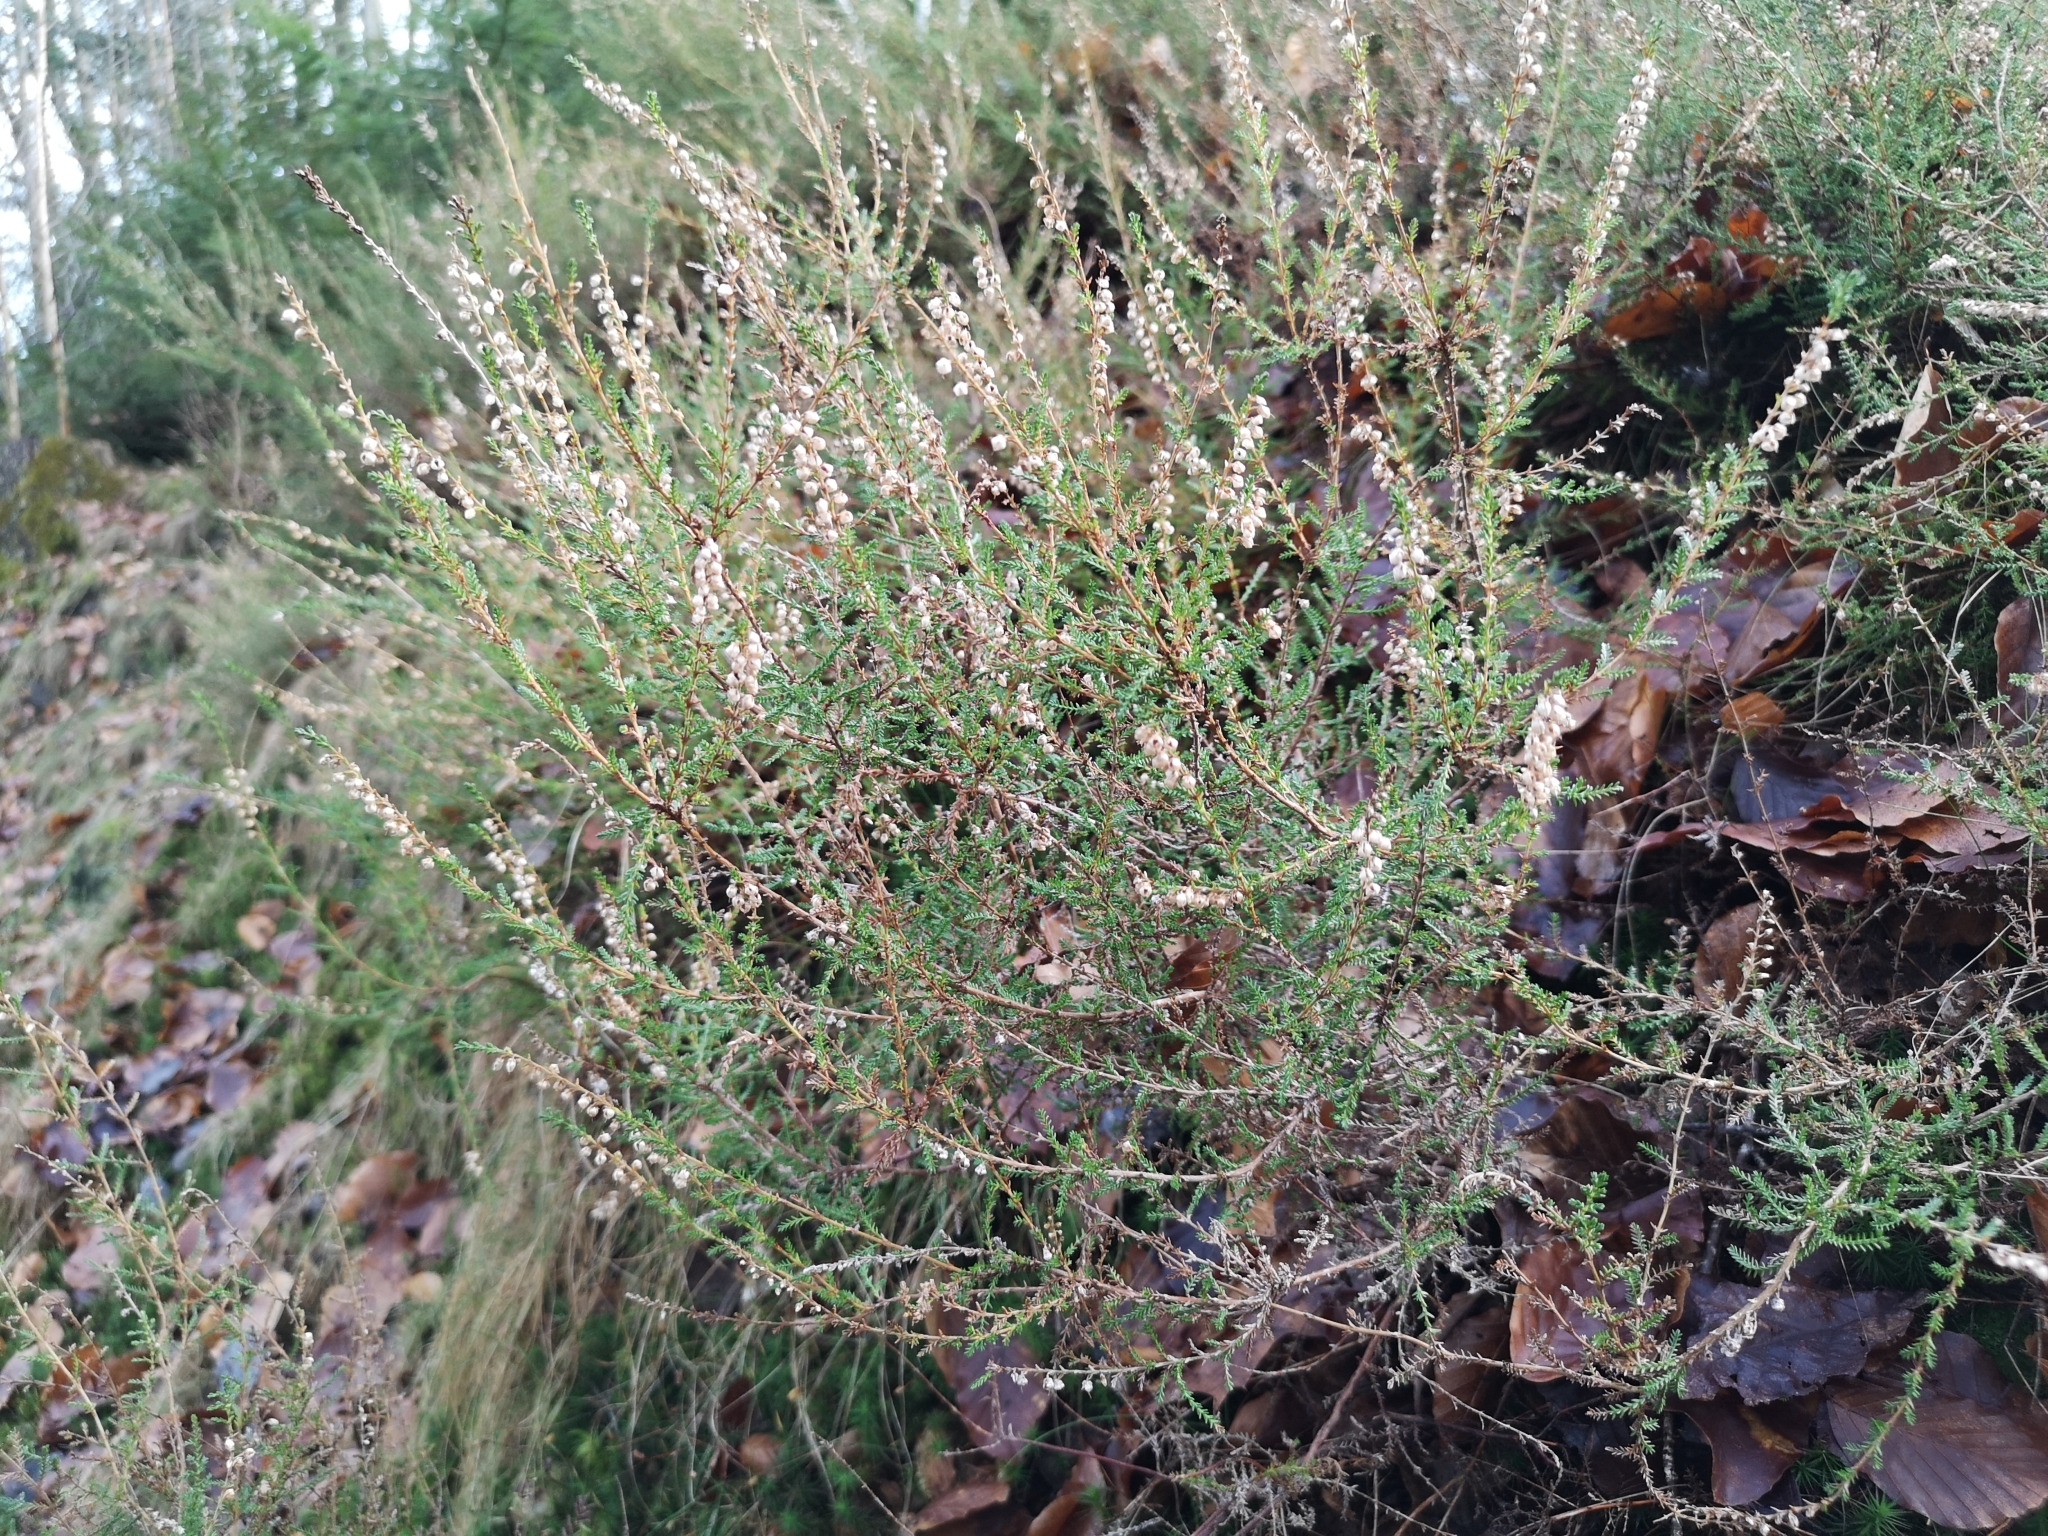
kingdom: Plantae
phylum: Tracheophyta
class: Magnoliopsida
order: Ericales
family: Ericaceae
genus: Calluna
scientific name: Calluna vulgaris
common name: Heather
